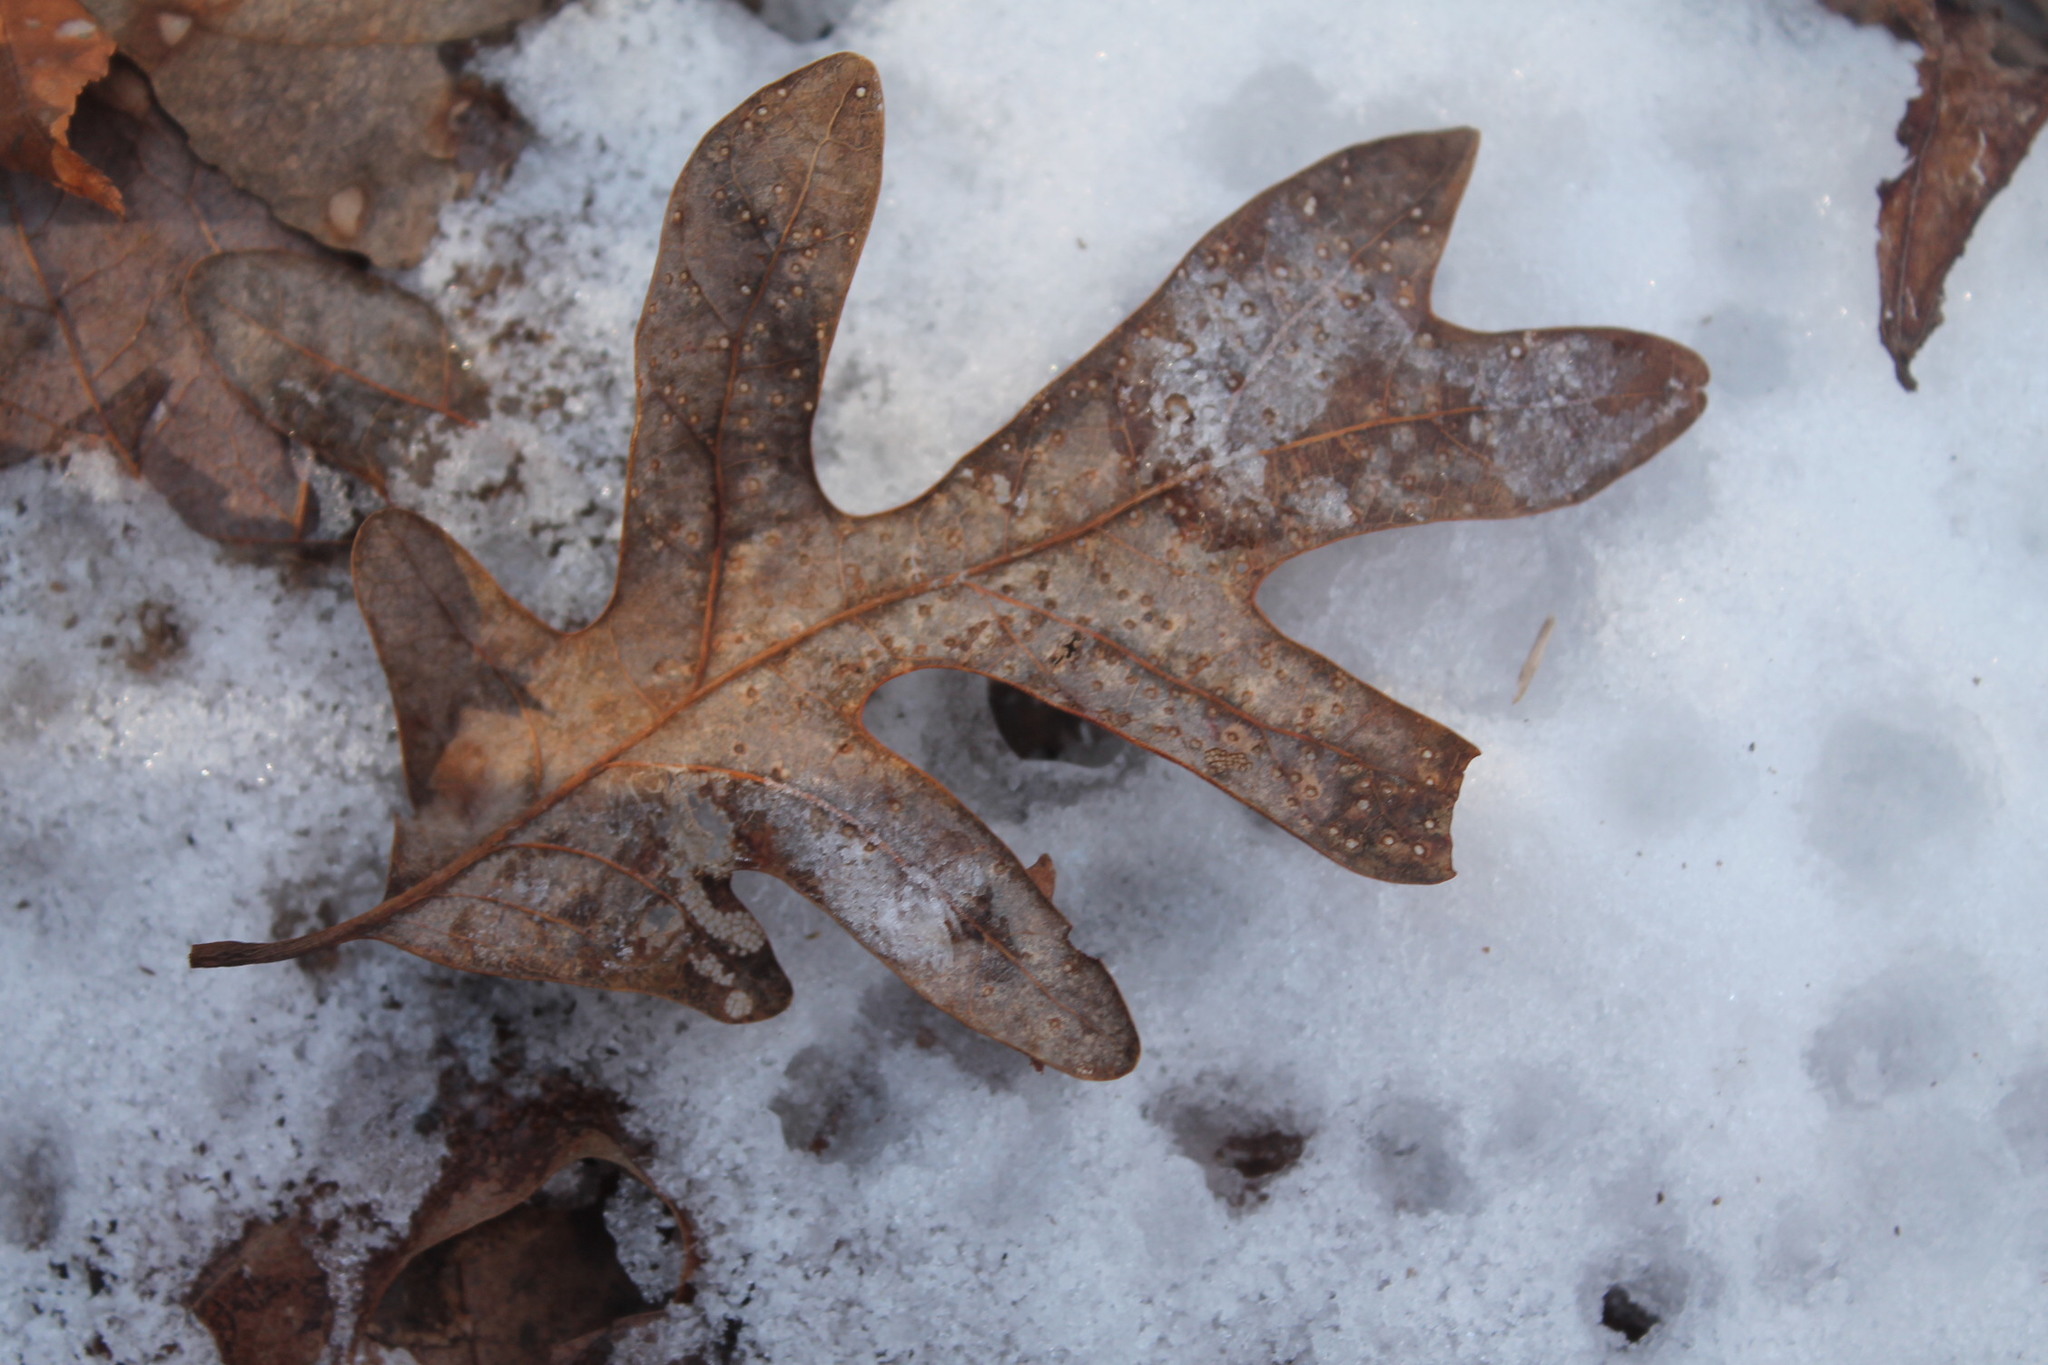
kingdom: Plantae
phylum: Tracheophyta
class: Magnoliopsida
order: Fagales
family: Fagaceae
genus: Quercus
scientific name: Quercus alba
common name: White oak
